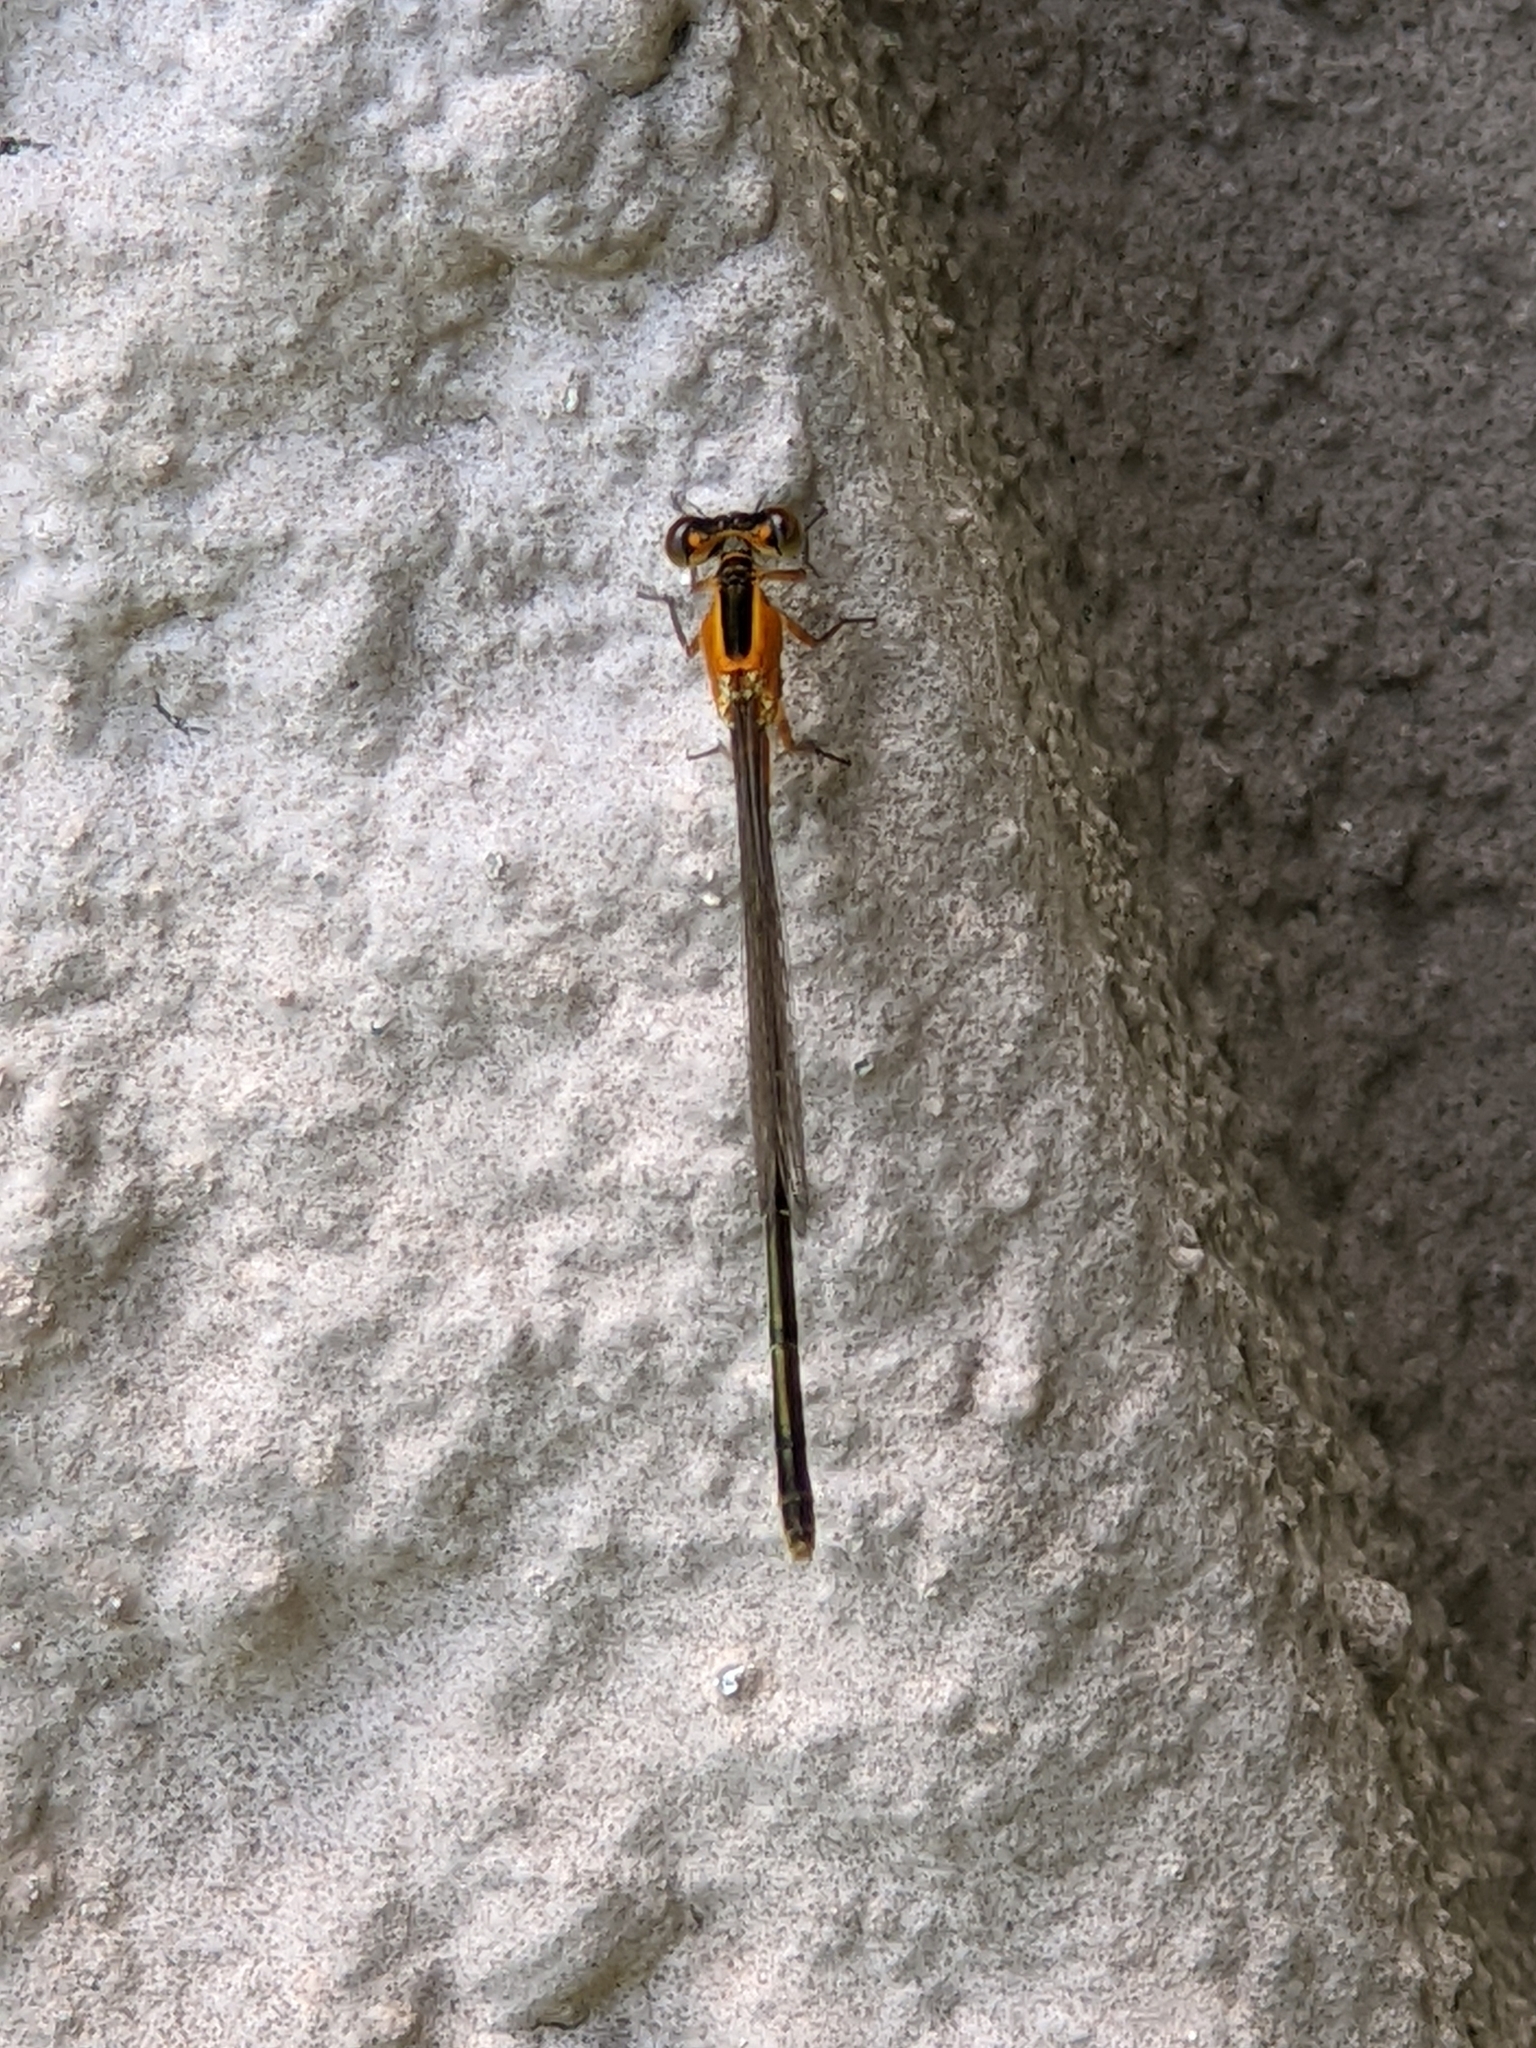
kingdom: Animalia
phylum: Arthropoda
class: Insecta
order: Odonata
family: Coenagrionidae
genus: Ischnura
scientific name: Ischnura ramburii
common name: Rambur's forktail
